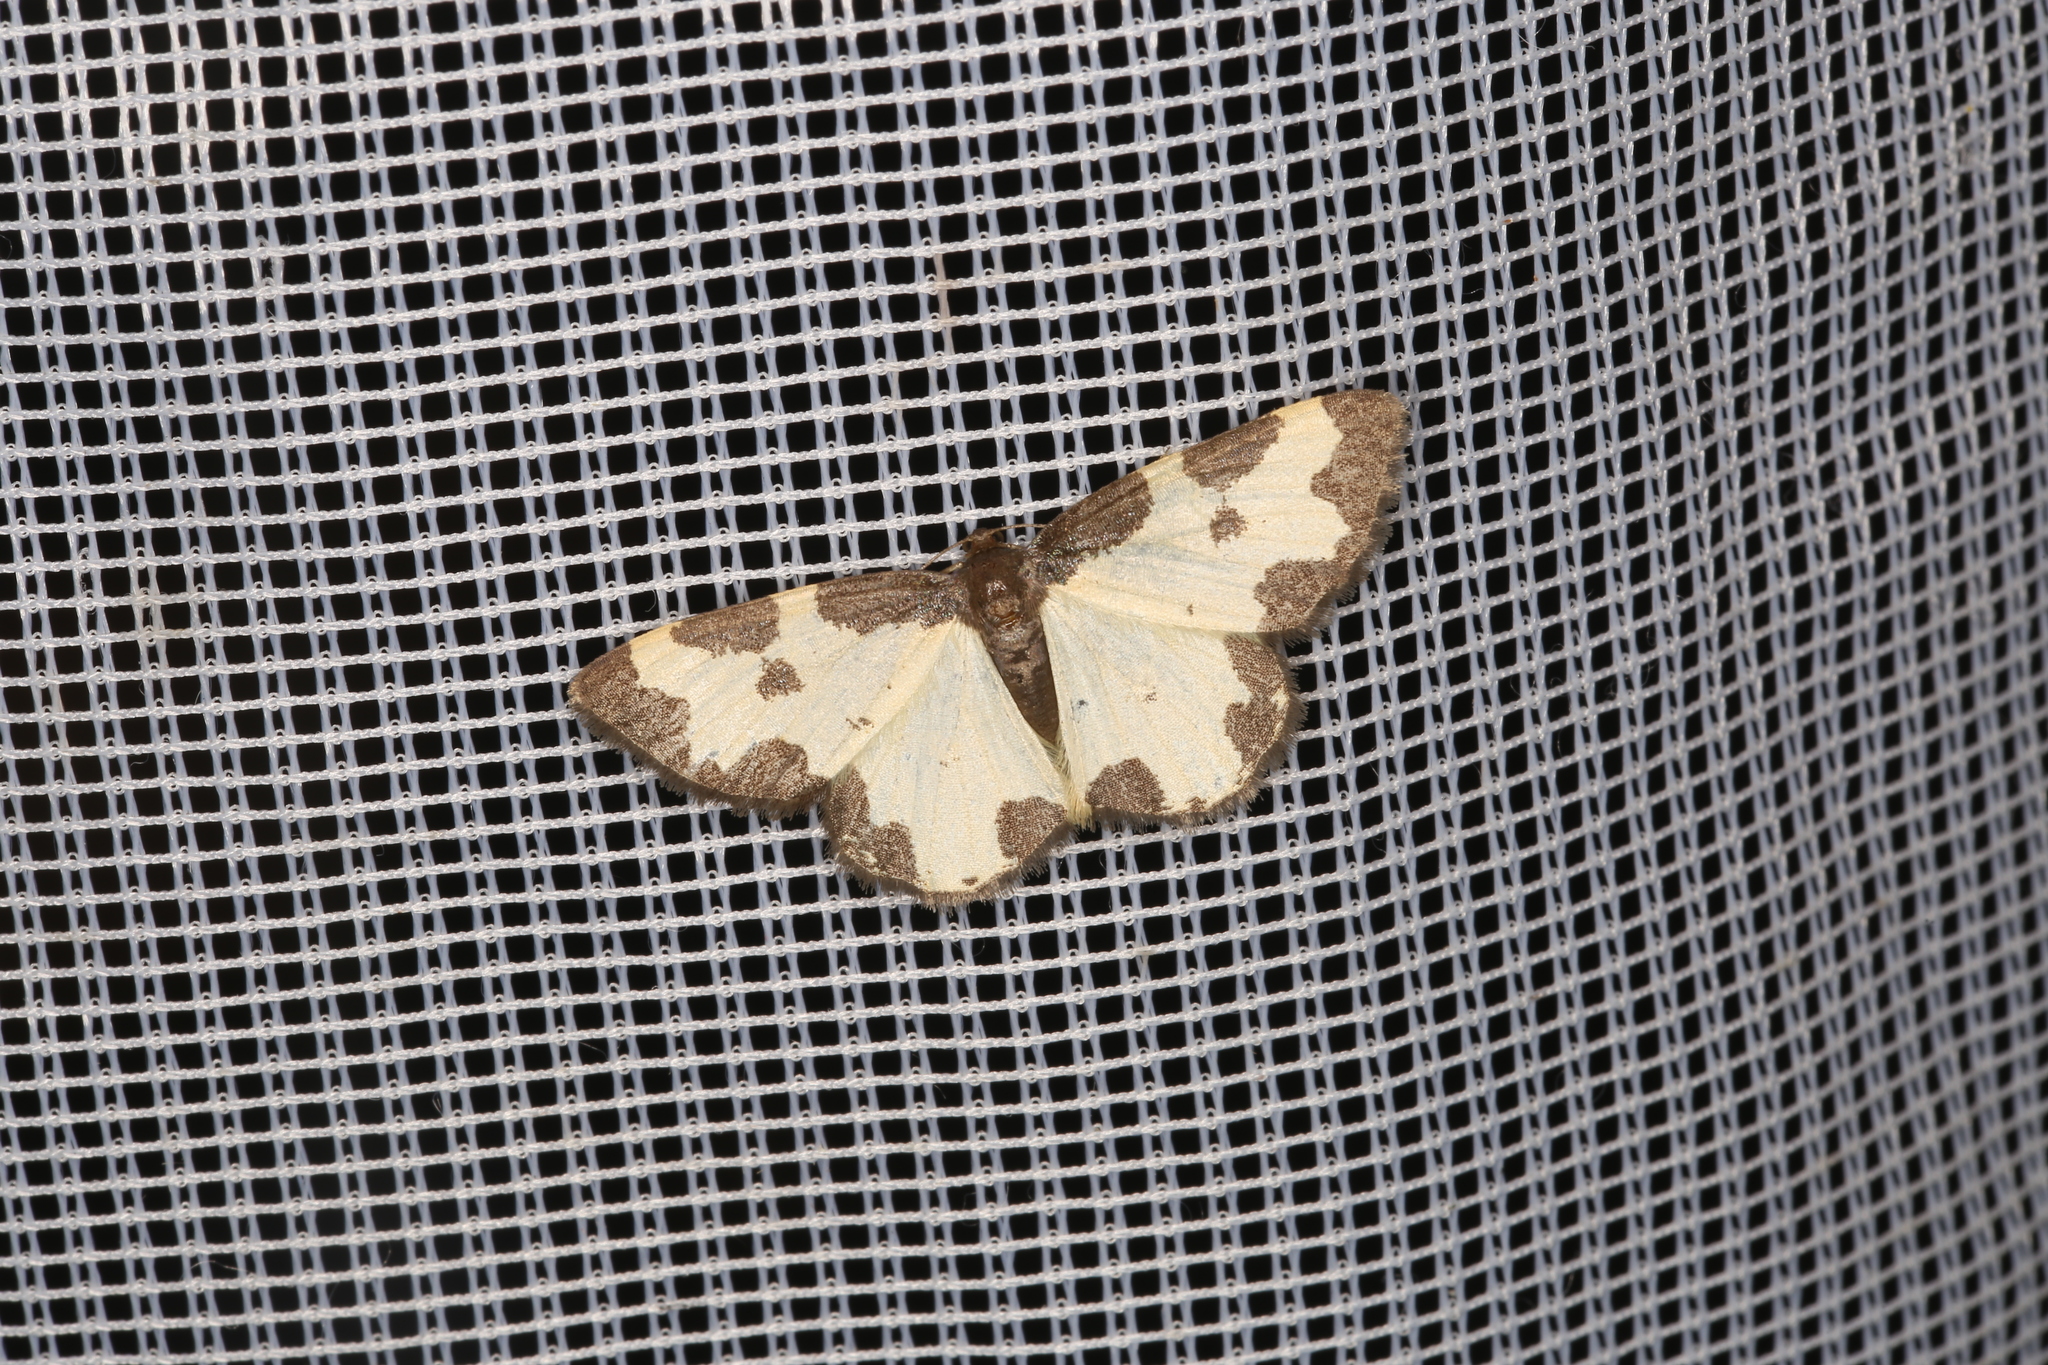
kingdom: Animalia
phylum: Arthropoda
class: Insecta
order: Lepidoptera
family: Geometridae
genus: Lomaspilis
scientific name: Lomaspilis marginata
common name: Clouded border
